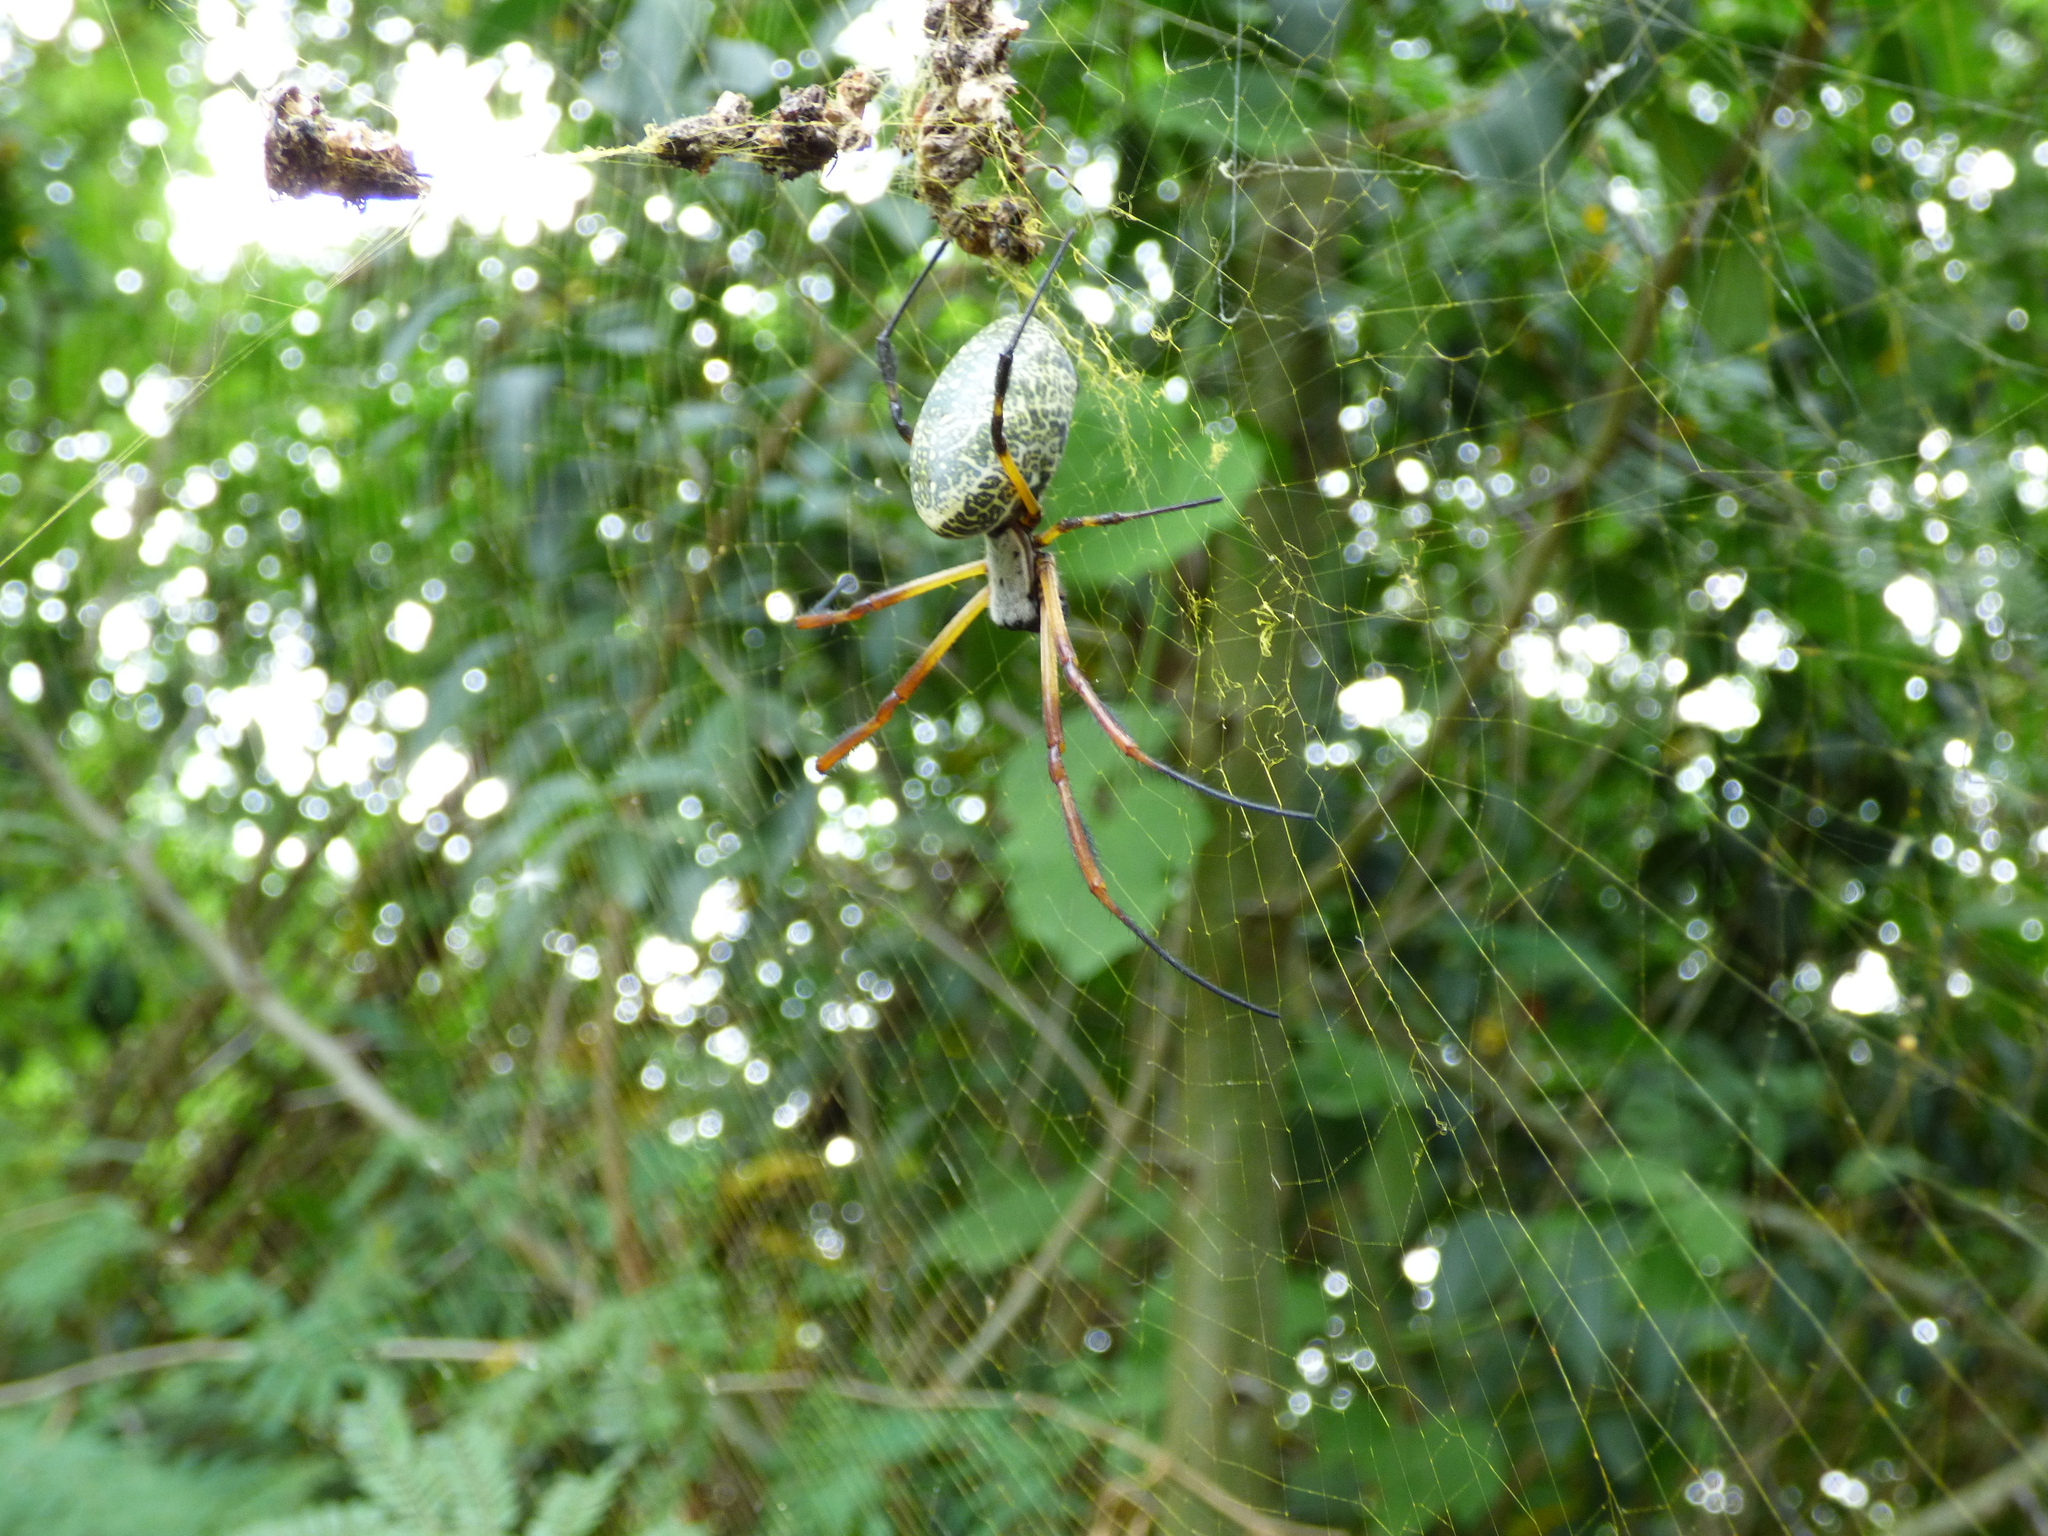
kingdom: Animalia
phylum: Arthropoda
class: Arachnida
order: Araneae
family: Araneidae
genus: Trichonephila
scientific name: Trichonephila sexpunctata
